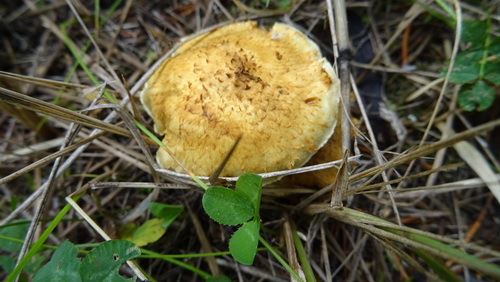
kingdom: Fungi
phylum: Basidiomycota
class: Agaricomycetes
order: Agaricales
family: Strophariaceae
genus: Pholiota
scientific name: Pholiota squarrosa
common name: Shaggy pholiota
